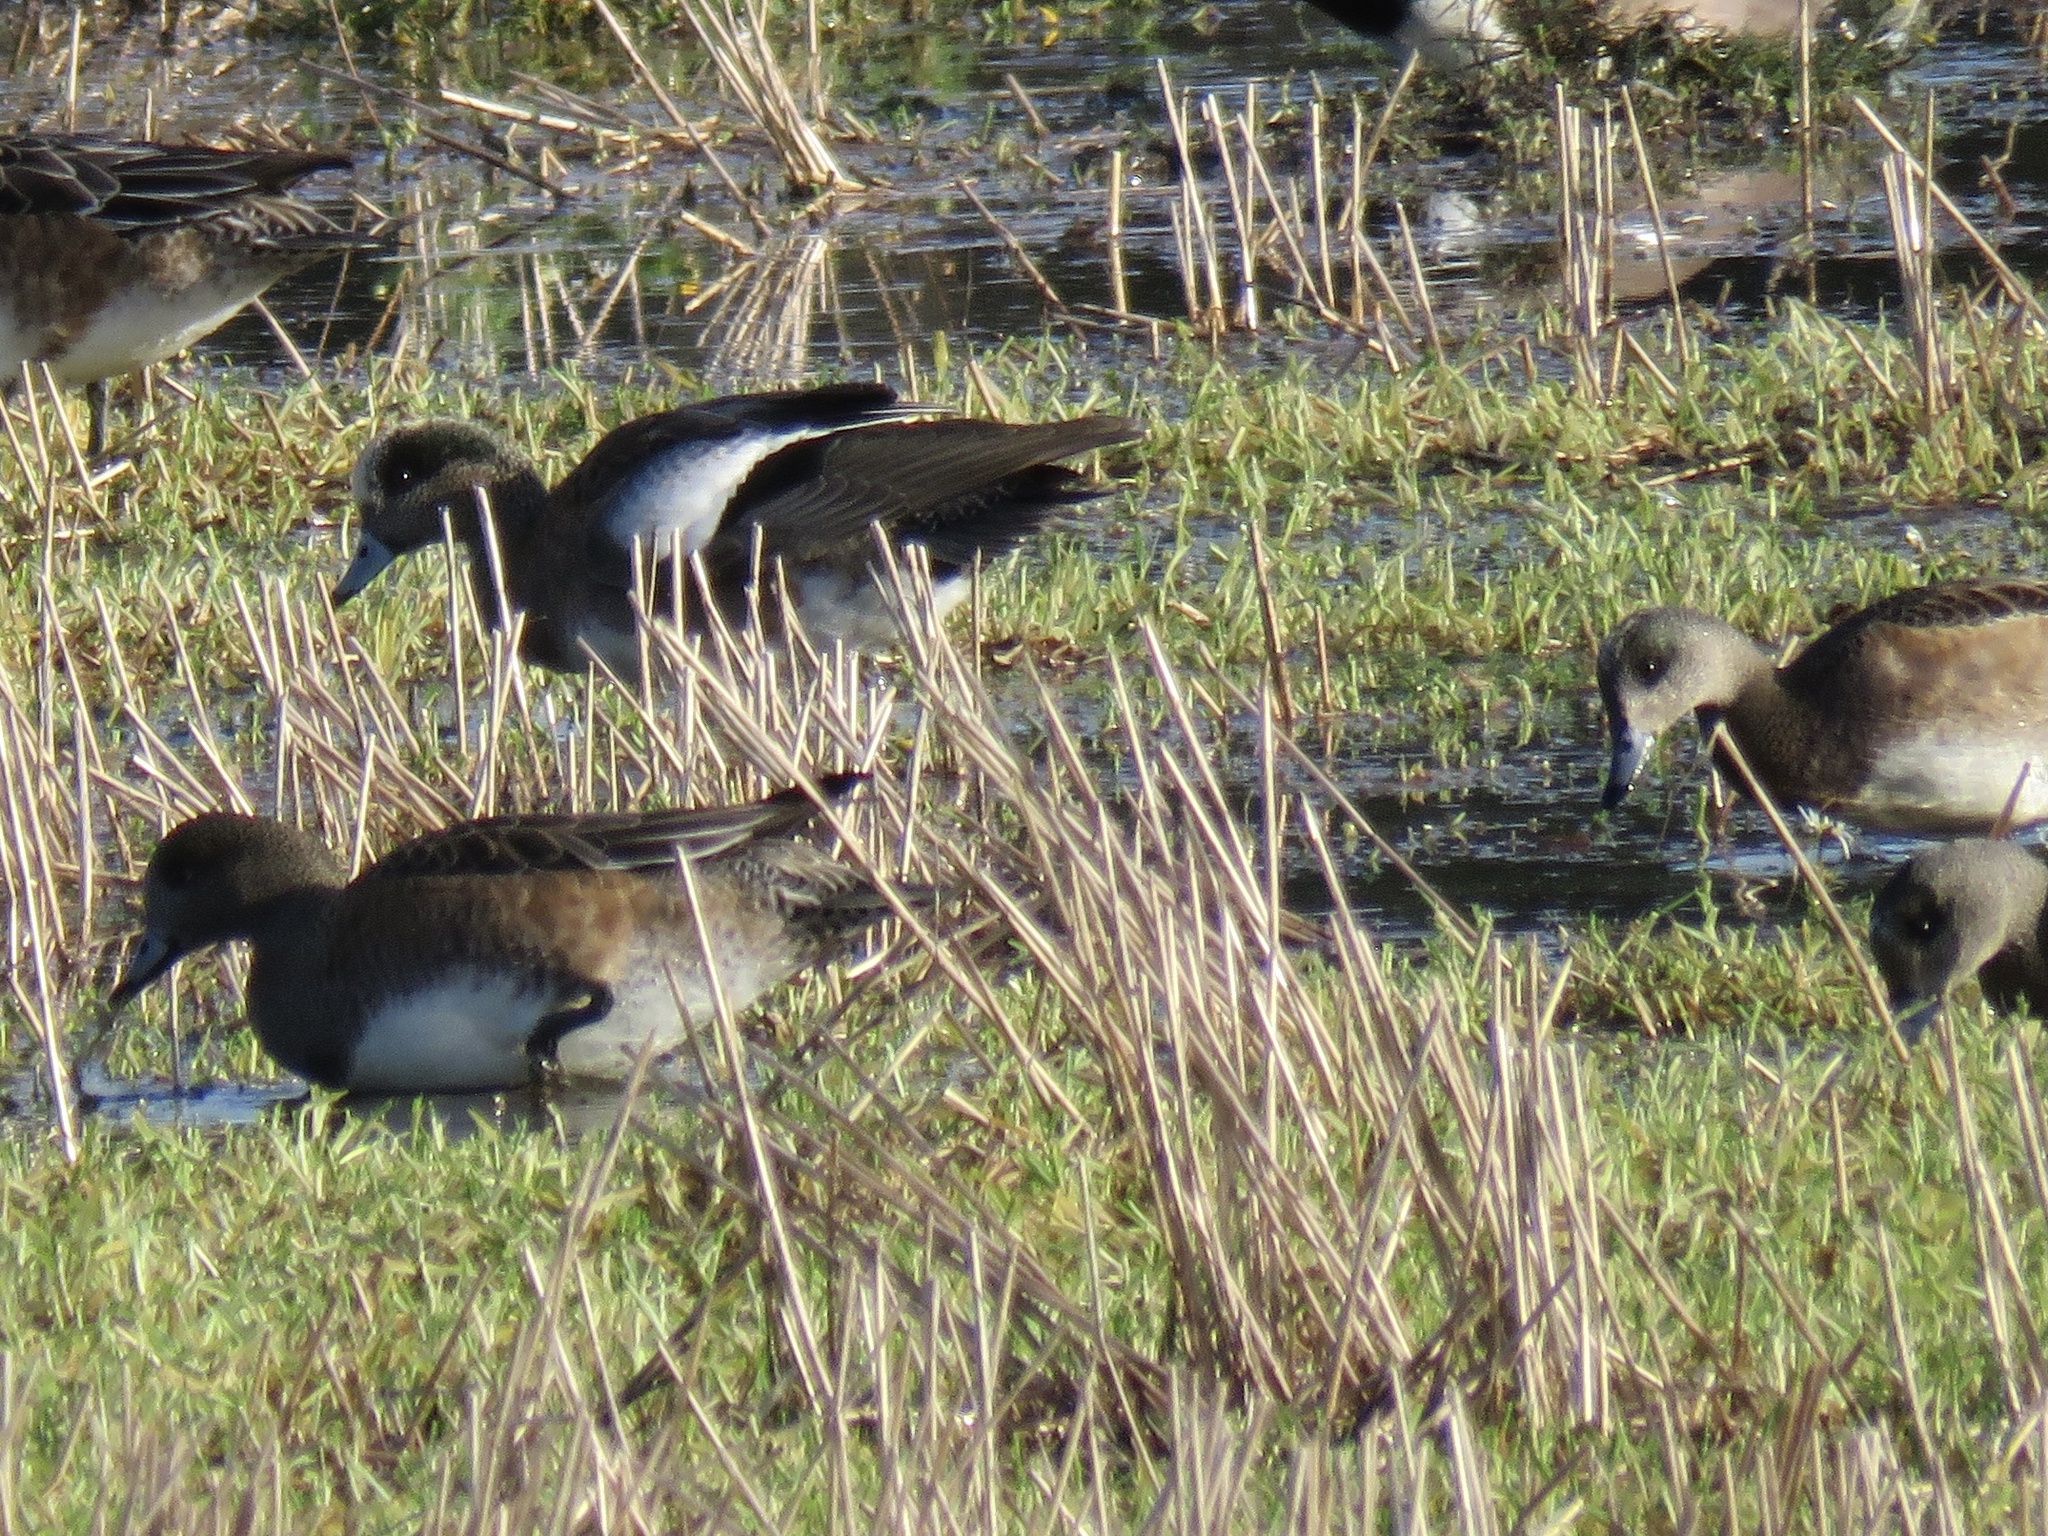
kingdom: Animalia
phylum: Chordata
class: Aves
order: Anseriformes
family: Anatidae
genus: Mareca
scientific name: Mareca americana
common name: American wigeon
